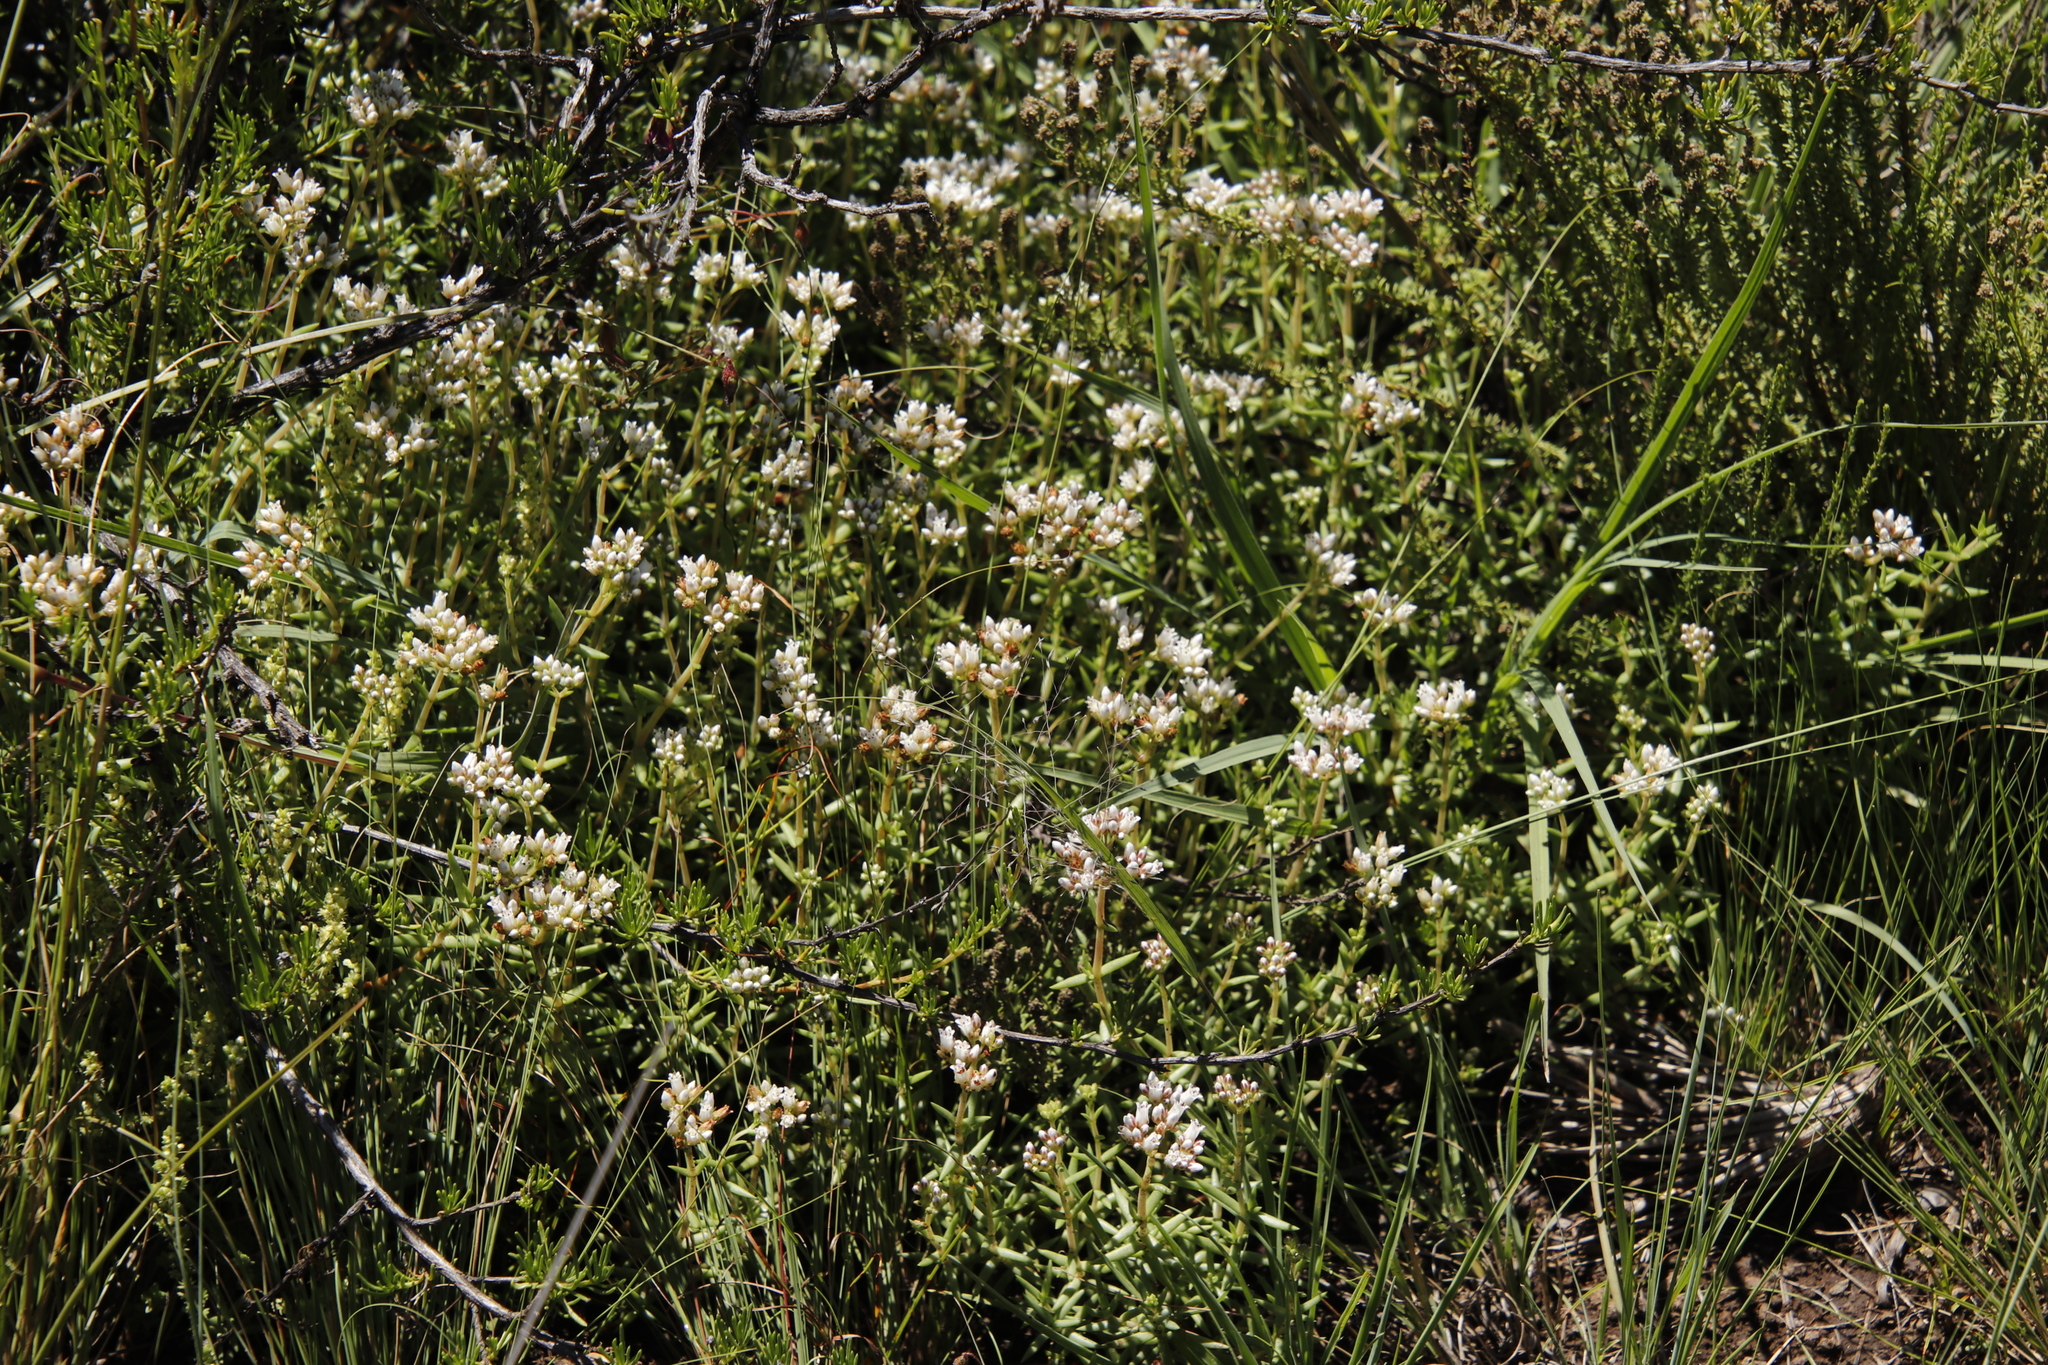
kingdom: Plantae
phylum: Tracheophyta
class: Magnoliopsida
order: Saxifragales
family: Crassulaceae
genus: Crassula
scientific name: Crassula dependens
